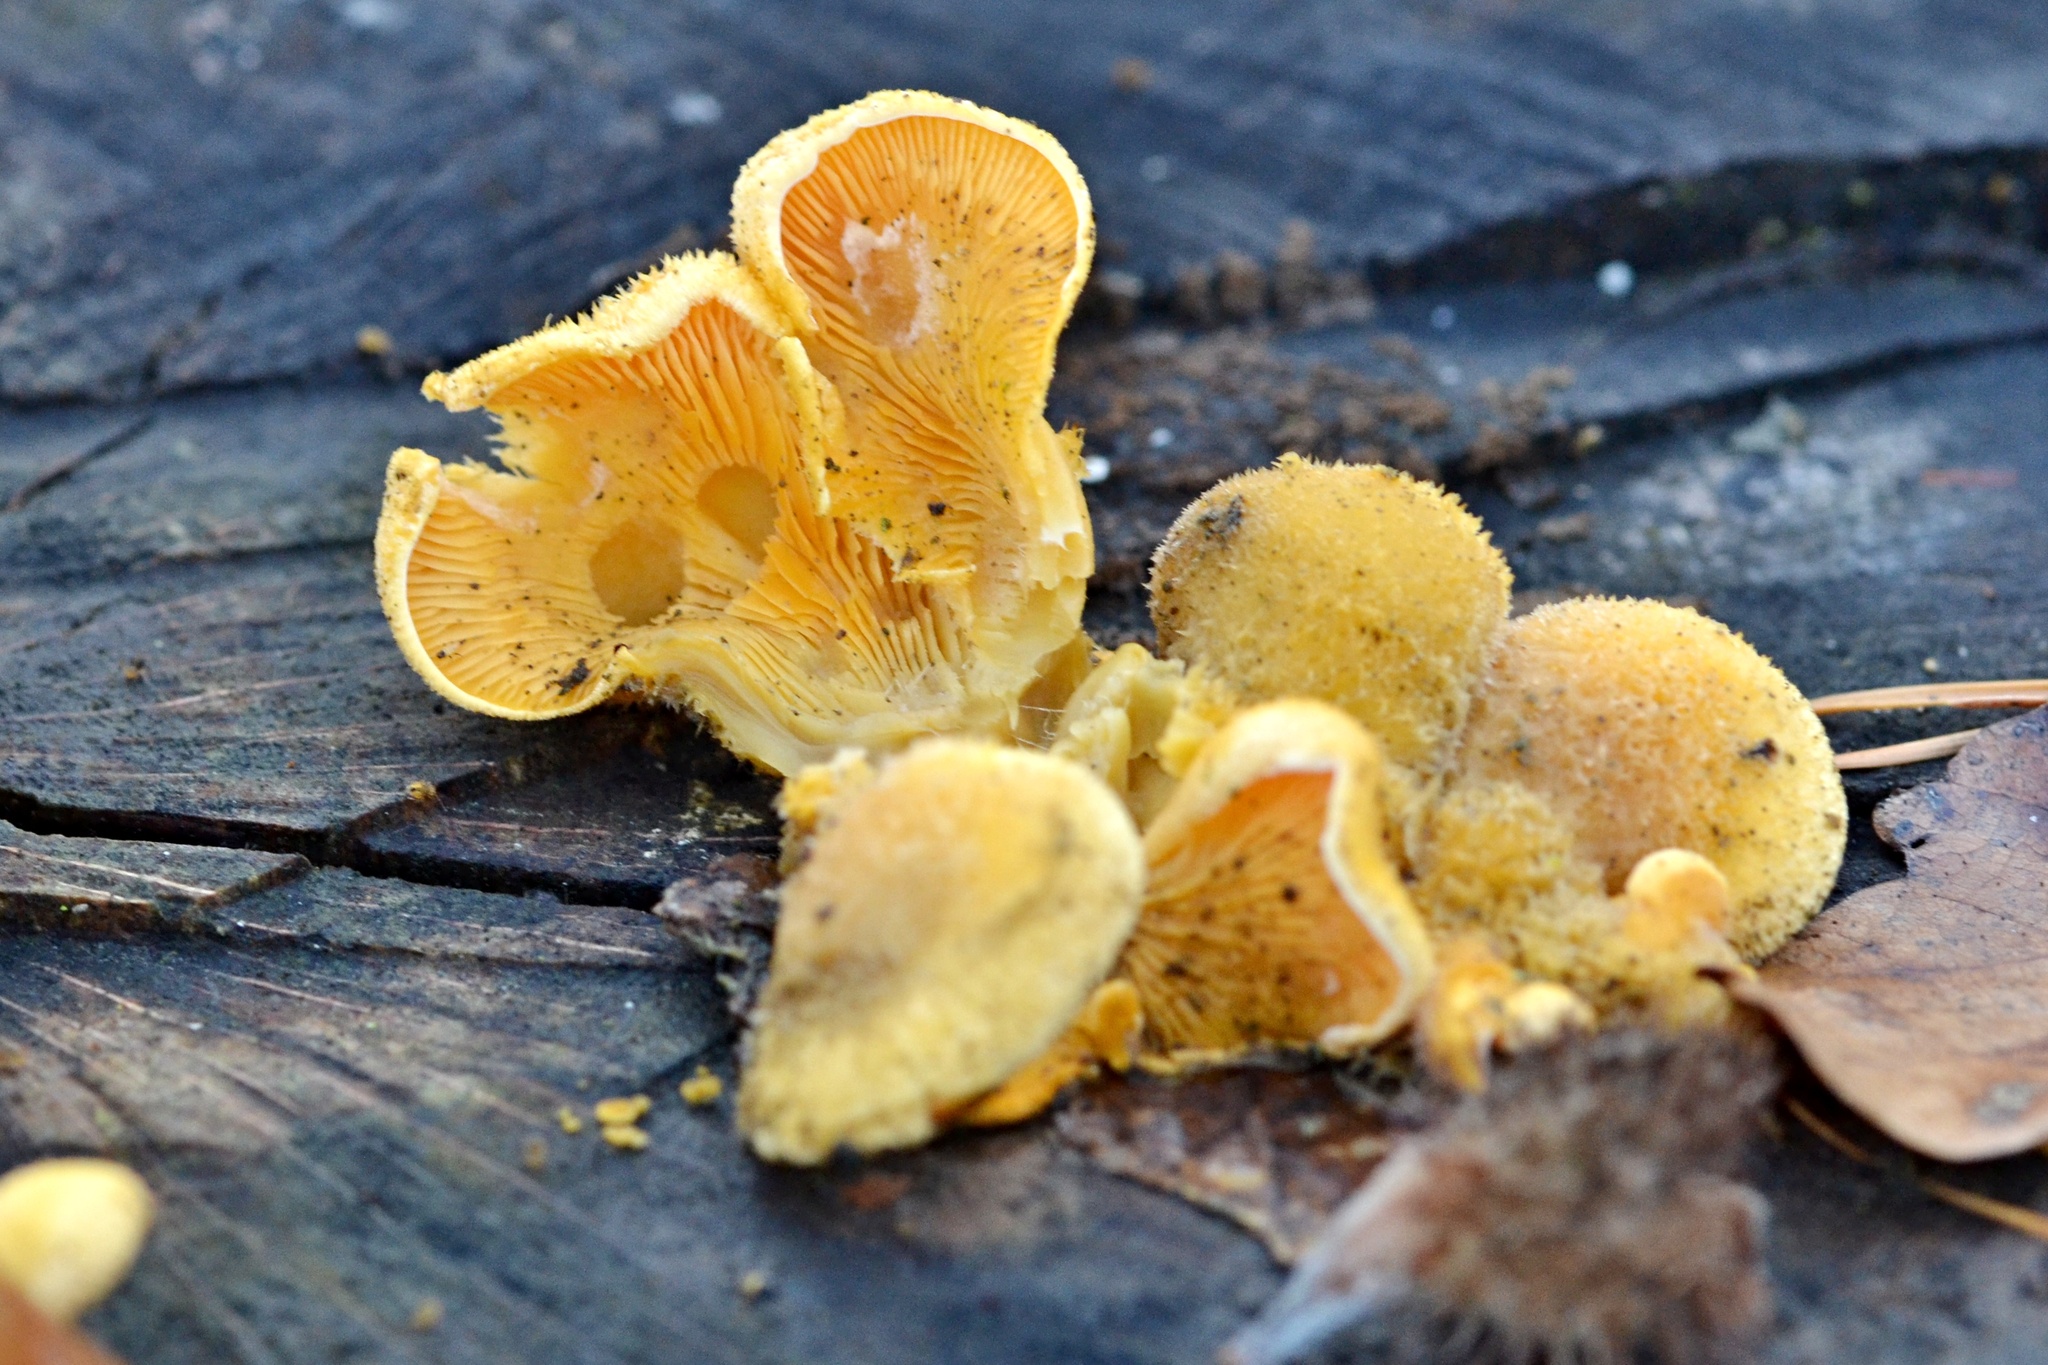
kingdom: Fungi
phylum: Basidiomycota
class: Agaricomycetes
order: Agaricales
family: Phyllotopsidaceae
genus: Phyllotopsis
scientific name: Phyllotopsis nidulans
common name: Orange mock oyster
